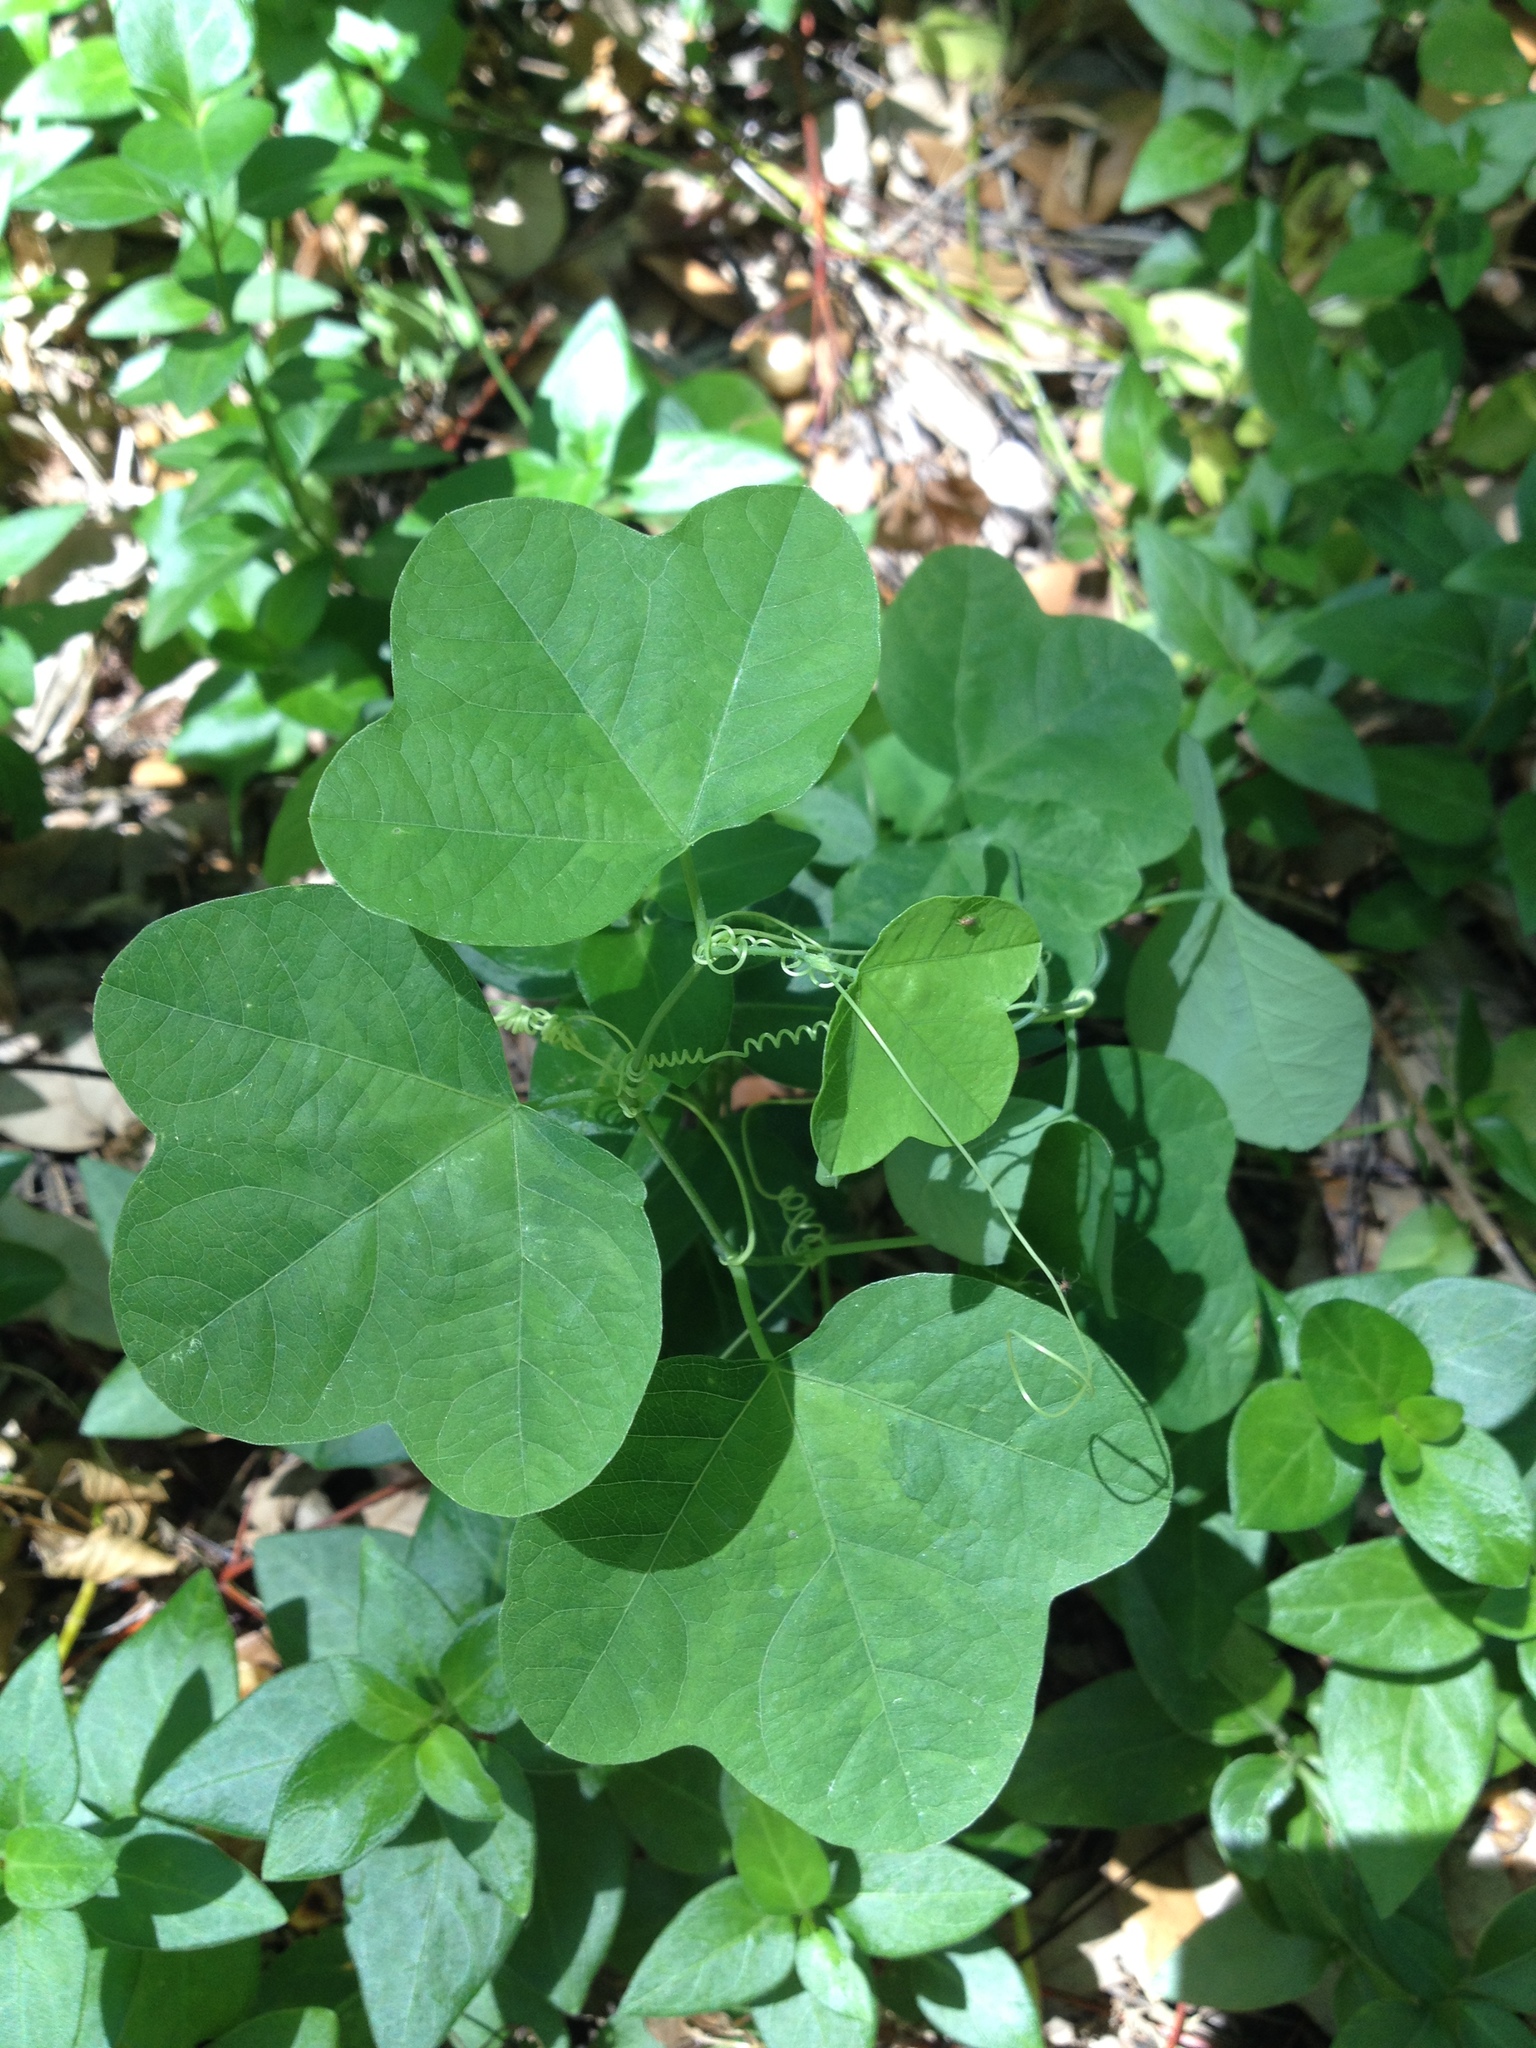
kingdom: Plantae
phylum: Tracheophyta
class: Magnoliopsida
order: Malpighiales
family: Passifloraceae
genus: Passiflora
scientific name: Passiflora lutea
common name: Yellow passionflower
